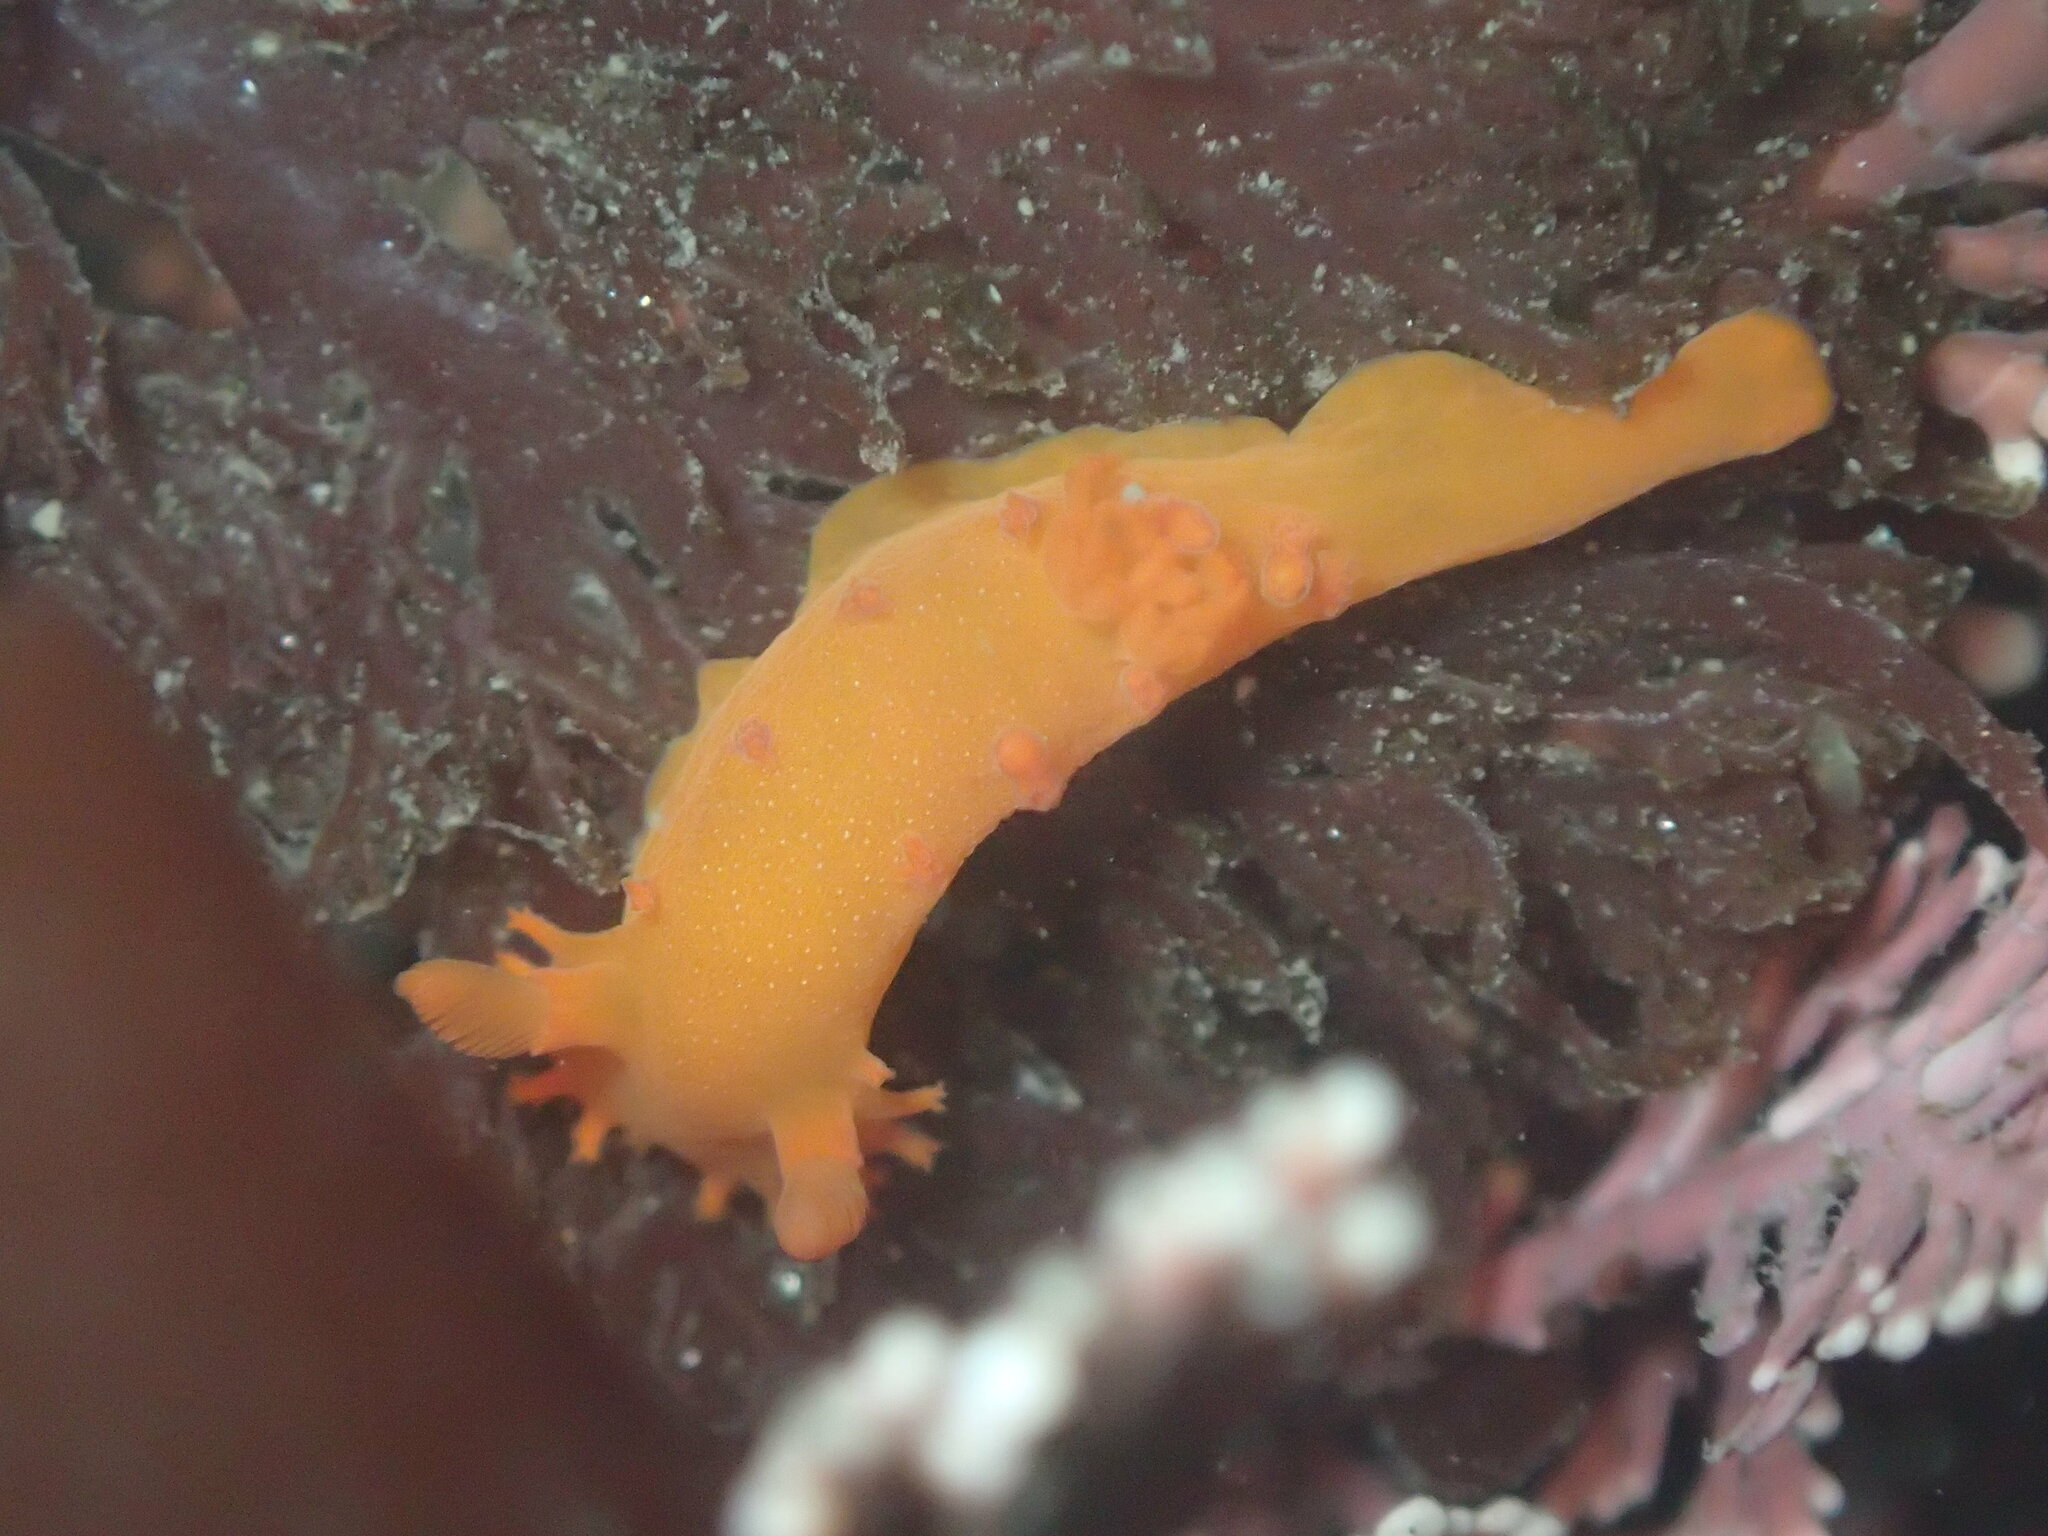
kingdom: Animalia
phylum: Mollusca
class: Gastropoda
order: Nudibranchia
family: Polyceridae
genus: Triopha
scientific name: Triopha maculata
